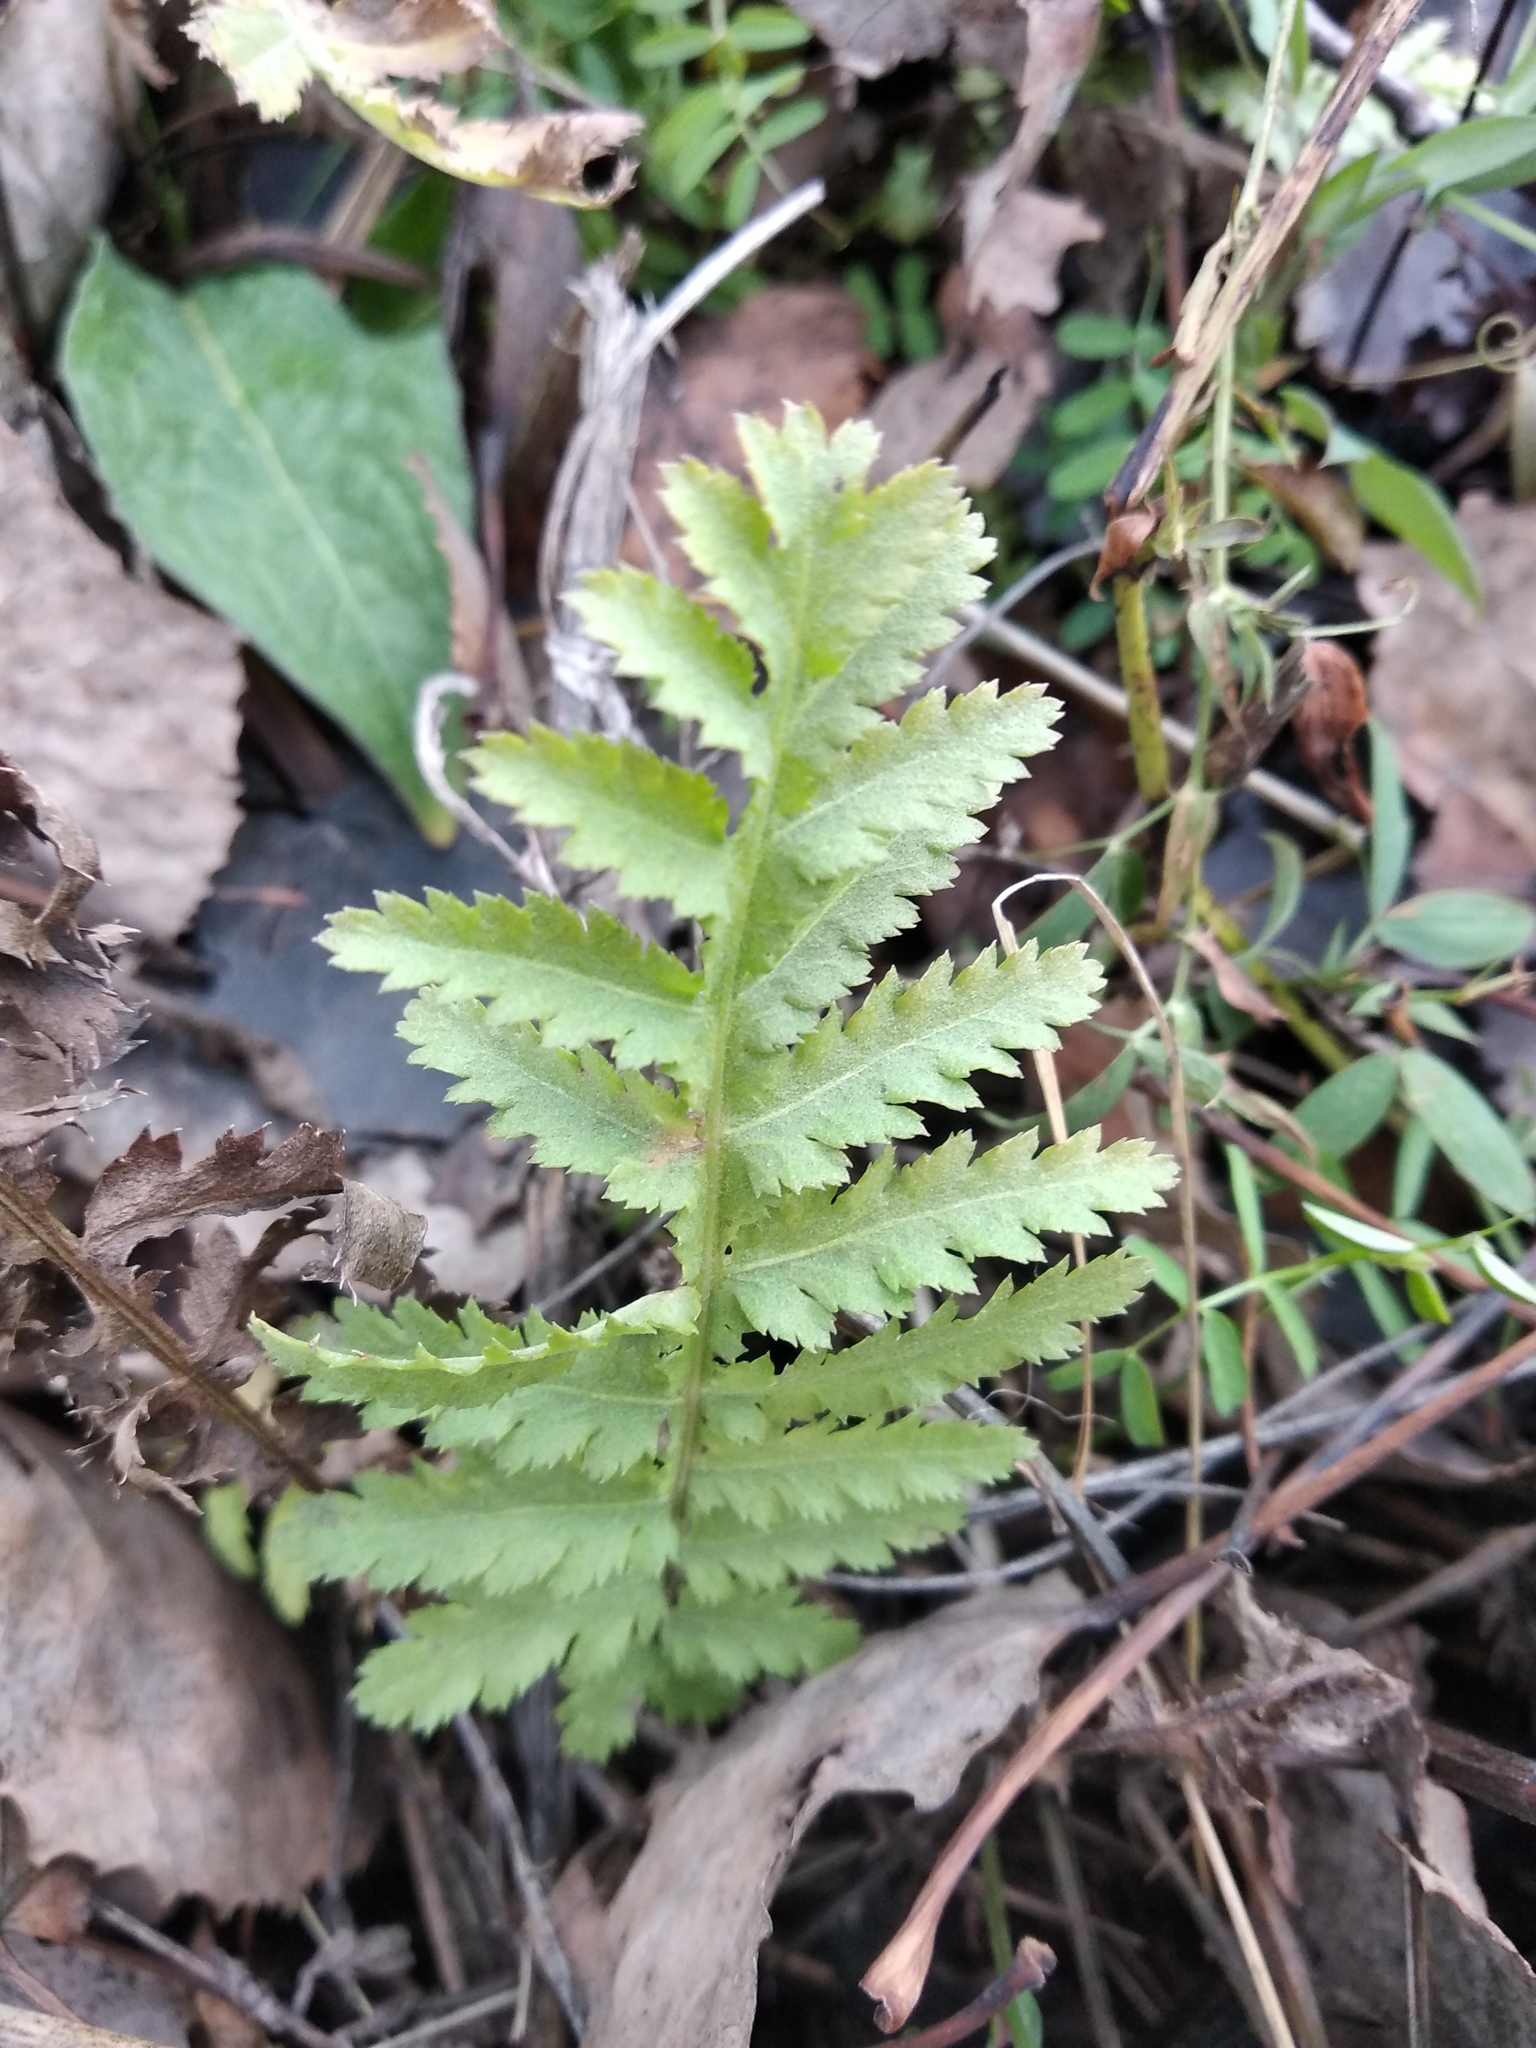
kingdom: Plantae
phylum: Tracheophyta
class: Magnoliopsida
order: Asterales
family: Asteraceae
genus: Tanacetum
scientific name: Tanacetum vulgare
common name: Common tansy
